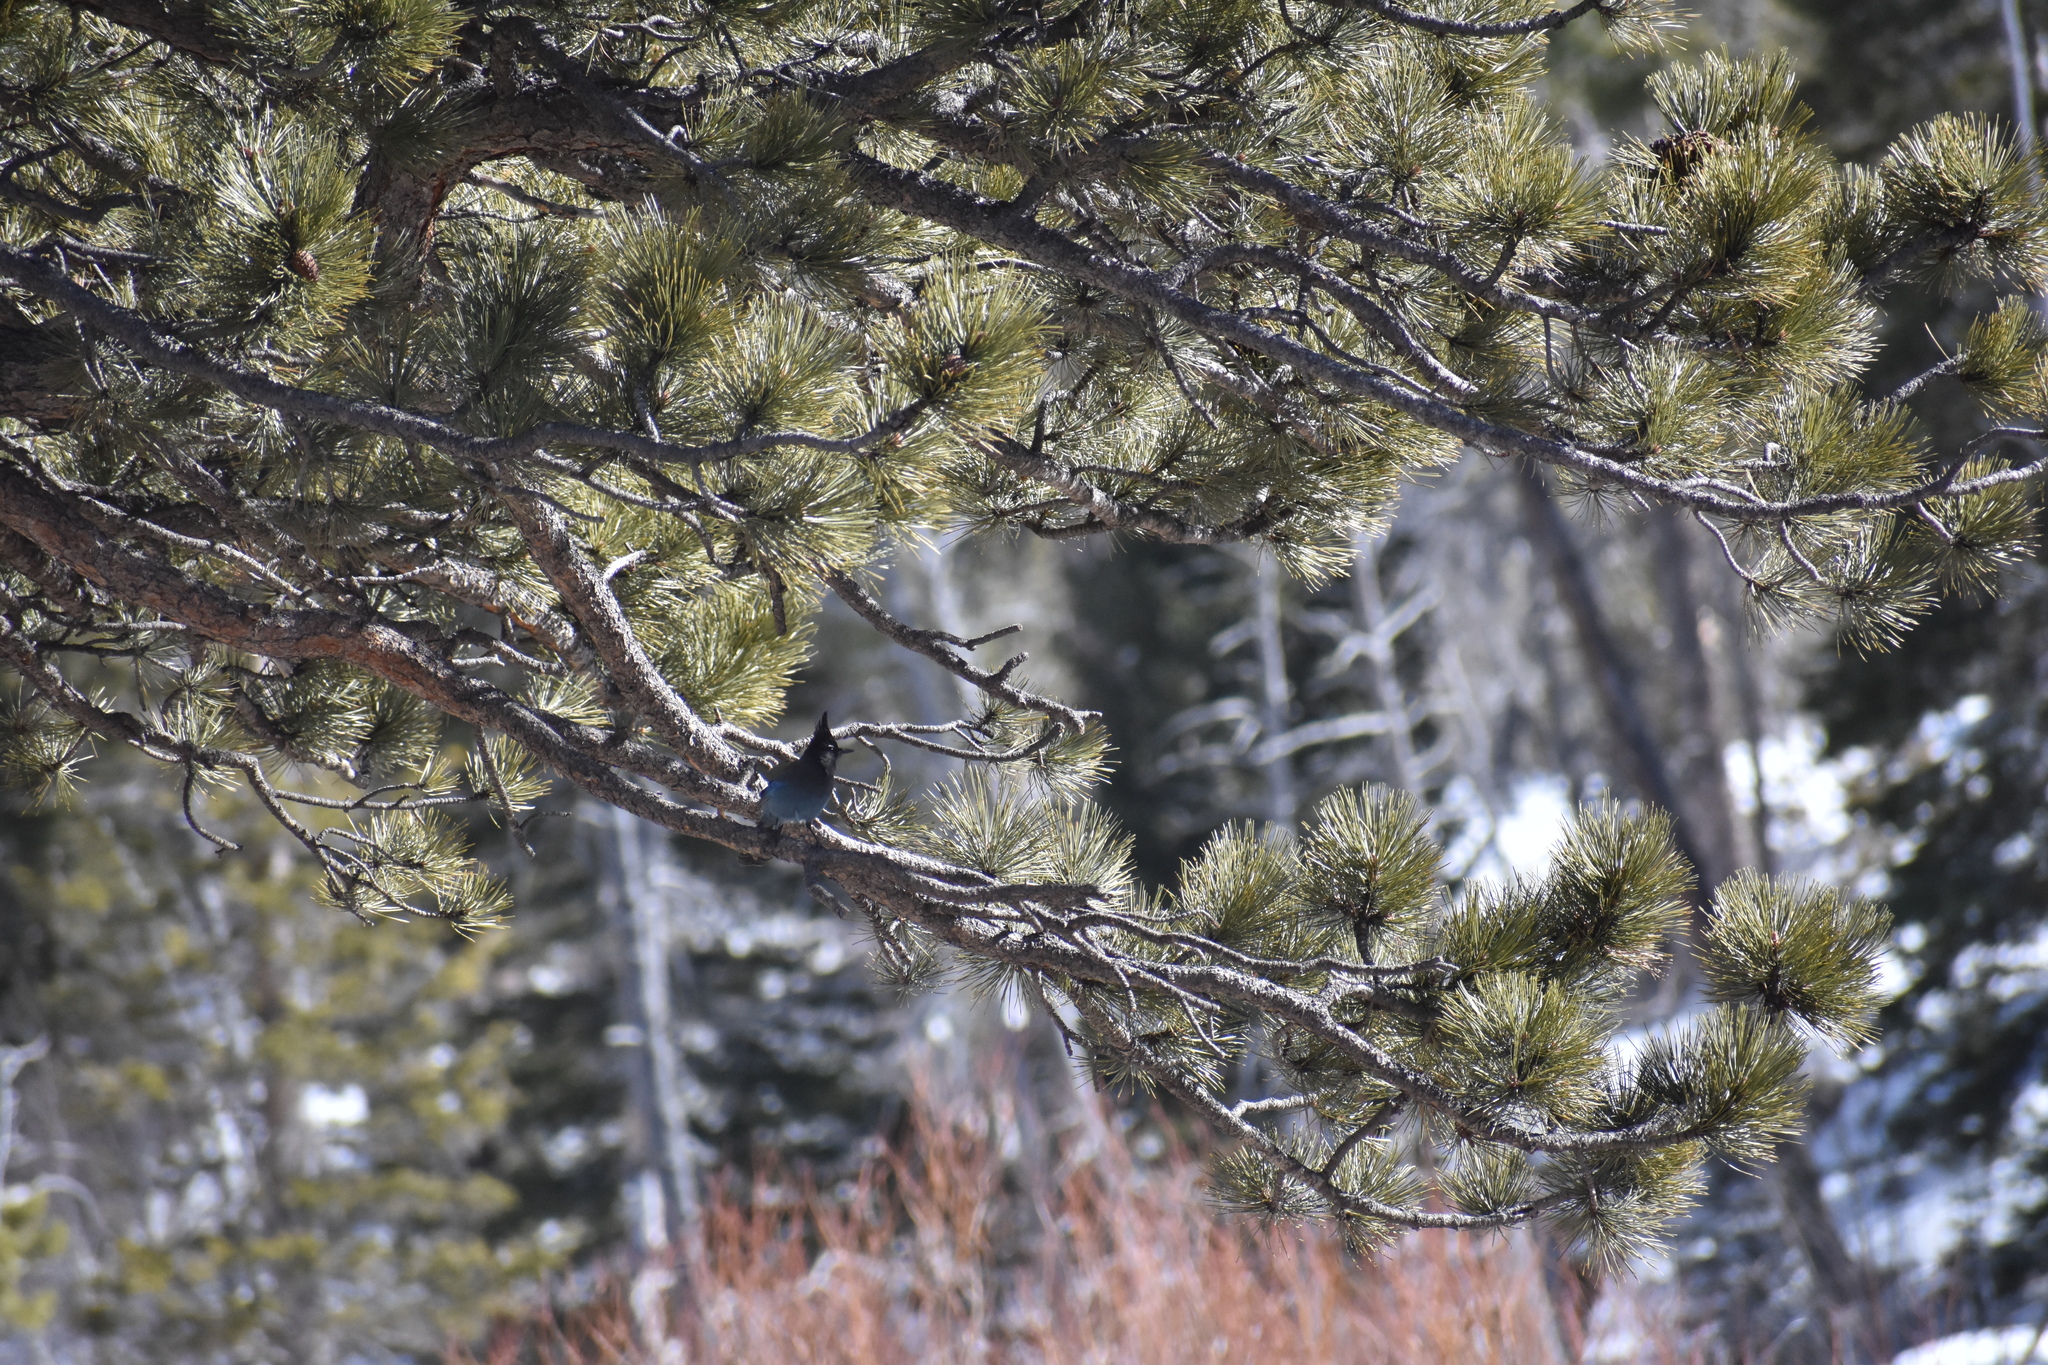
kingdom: Animalia
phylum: Chordata
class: Aves
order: Passeriformes
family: Corvidae
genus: Cyanocitta
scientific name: Cyanocitta stelleri
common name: Steller's jay
